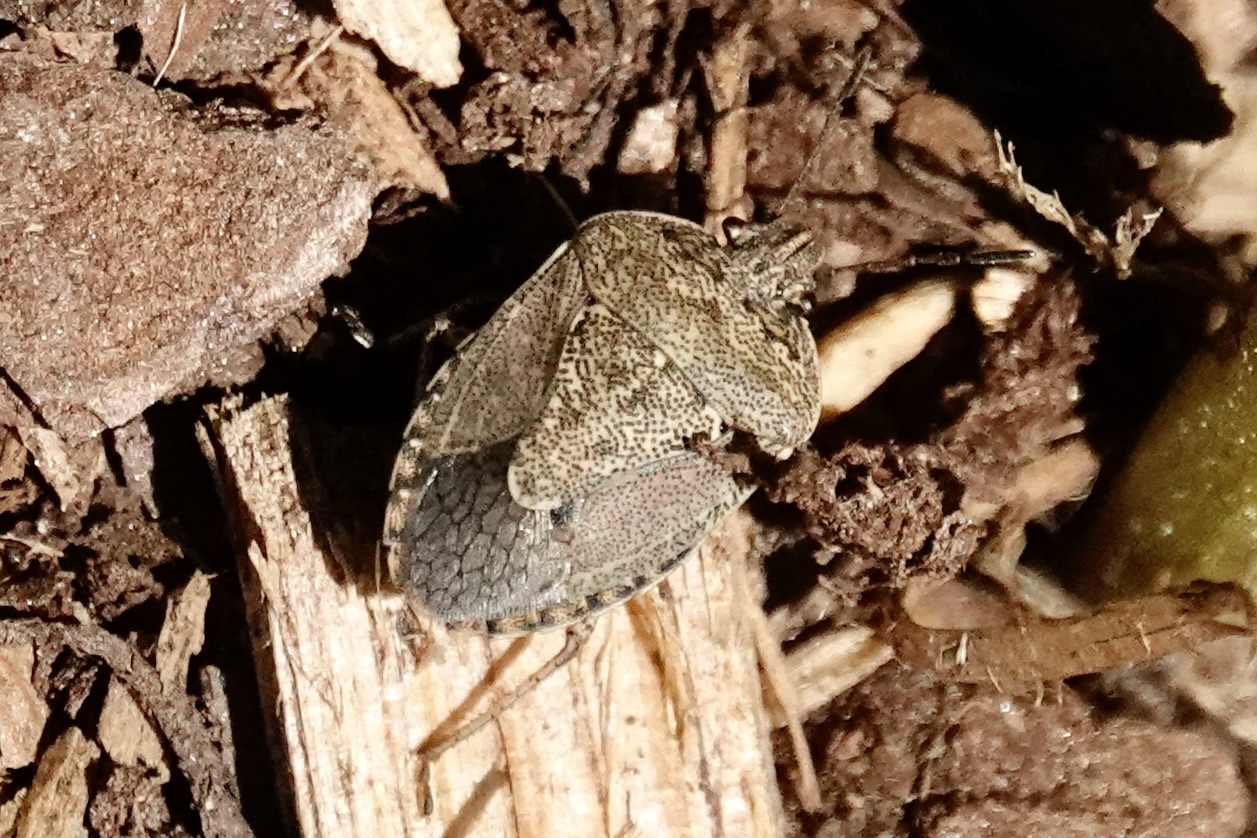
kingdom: Animalia
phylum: Arthropoda
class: Insecta
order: Hemiptera
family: Pentatomidae
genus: Hymenarcys
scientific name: Hymenarcys nervosa
